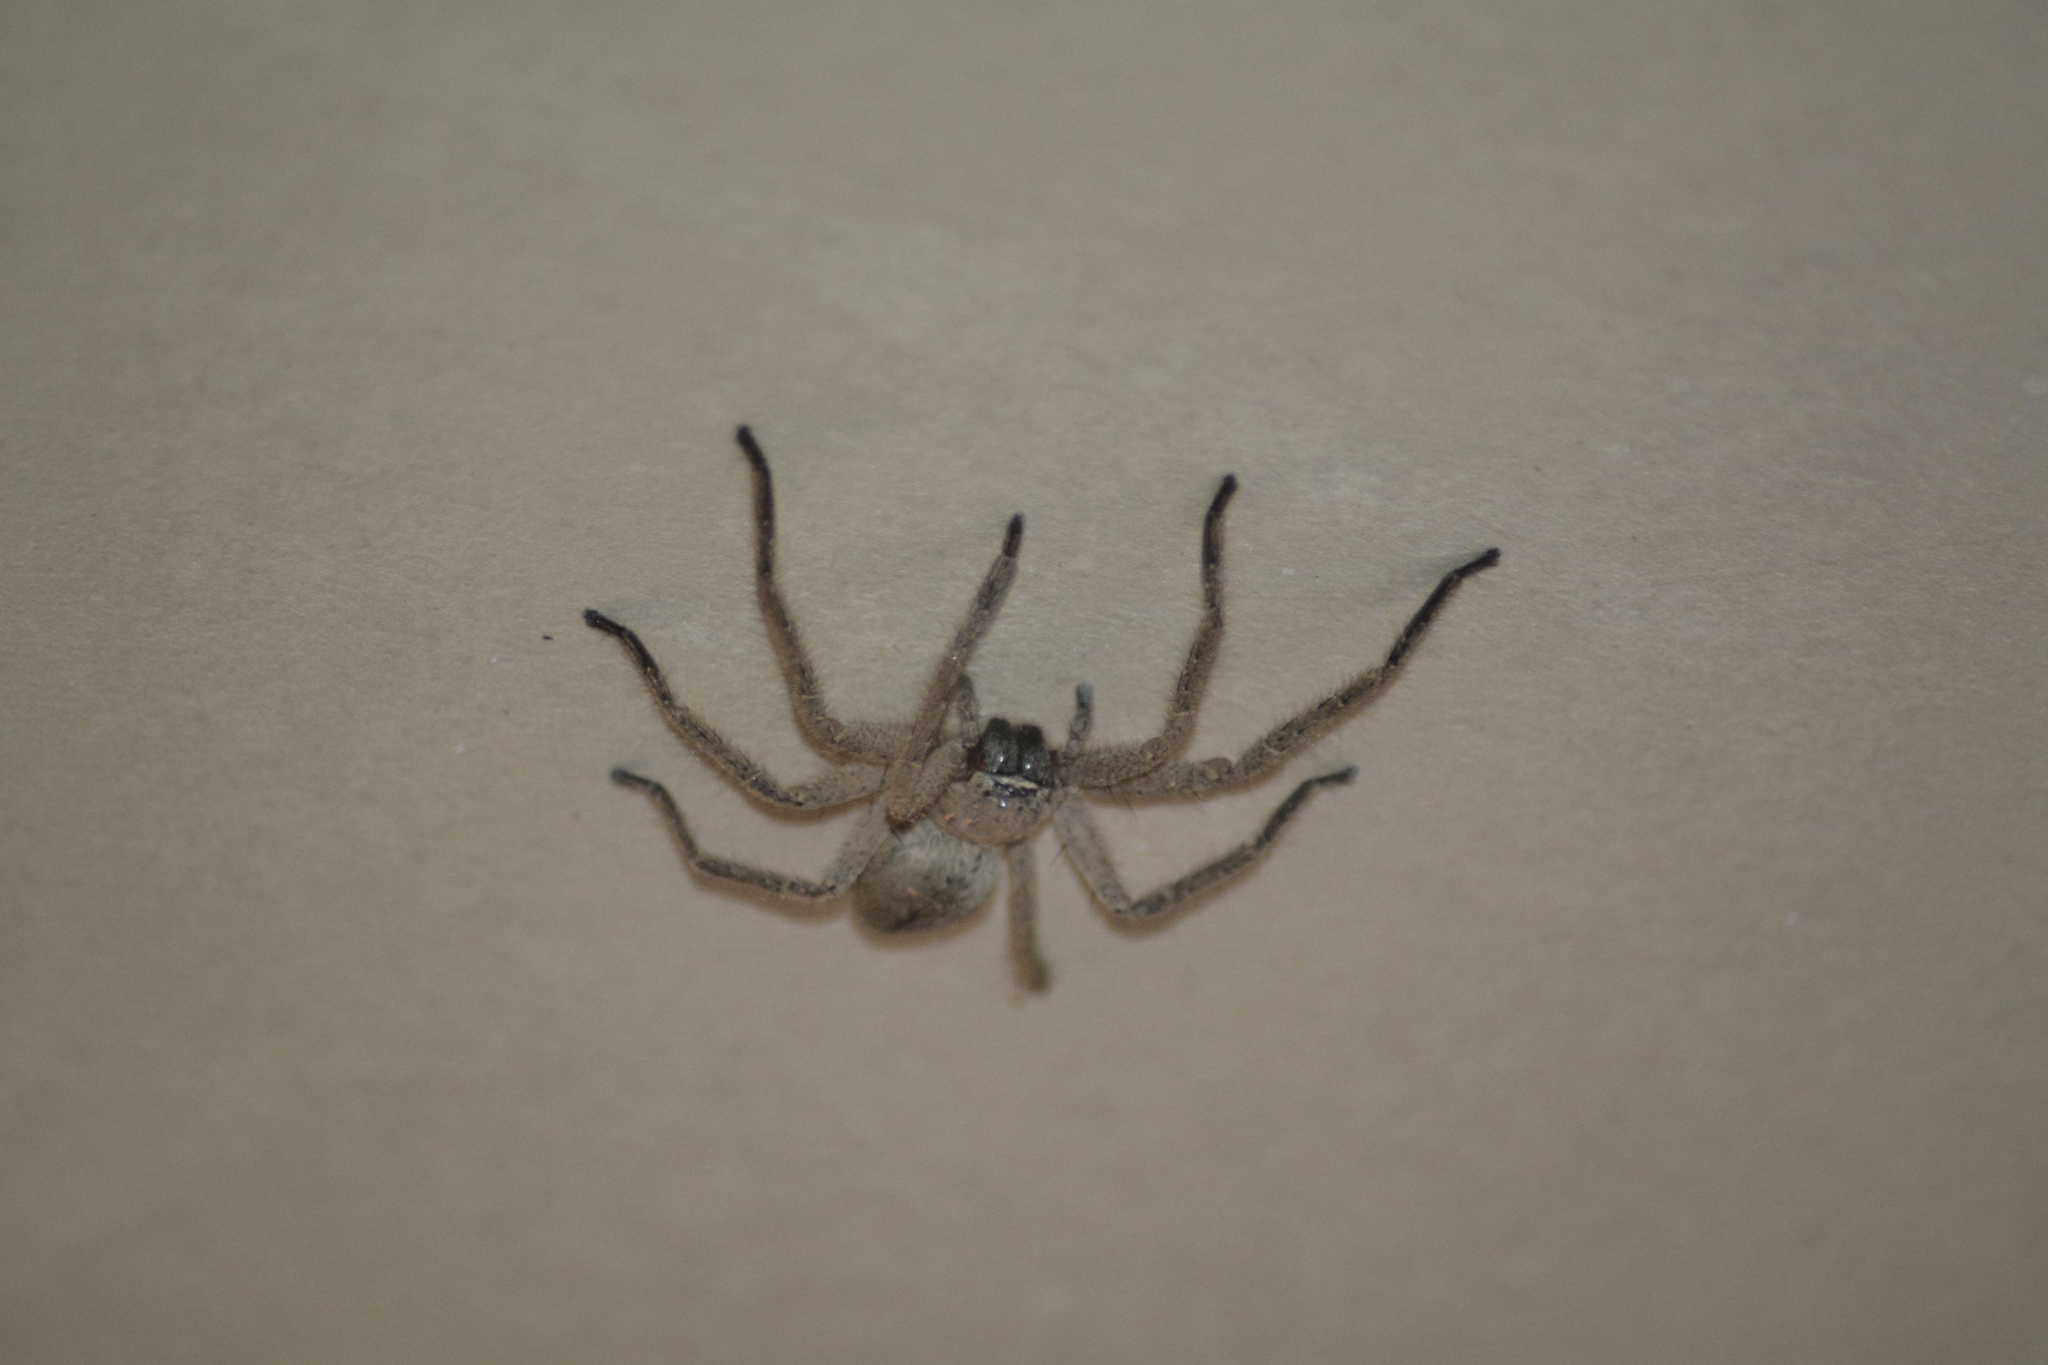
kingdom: Animalia
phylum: Arthropoda
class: Arachnida
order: Araneae
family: Sparassidae
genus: Polybetes
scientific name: Polybetes trifoveatus
